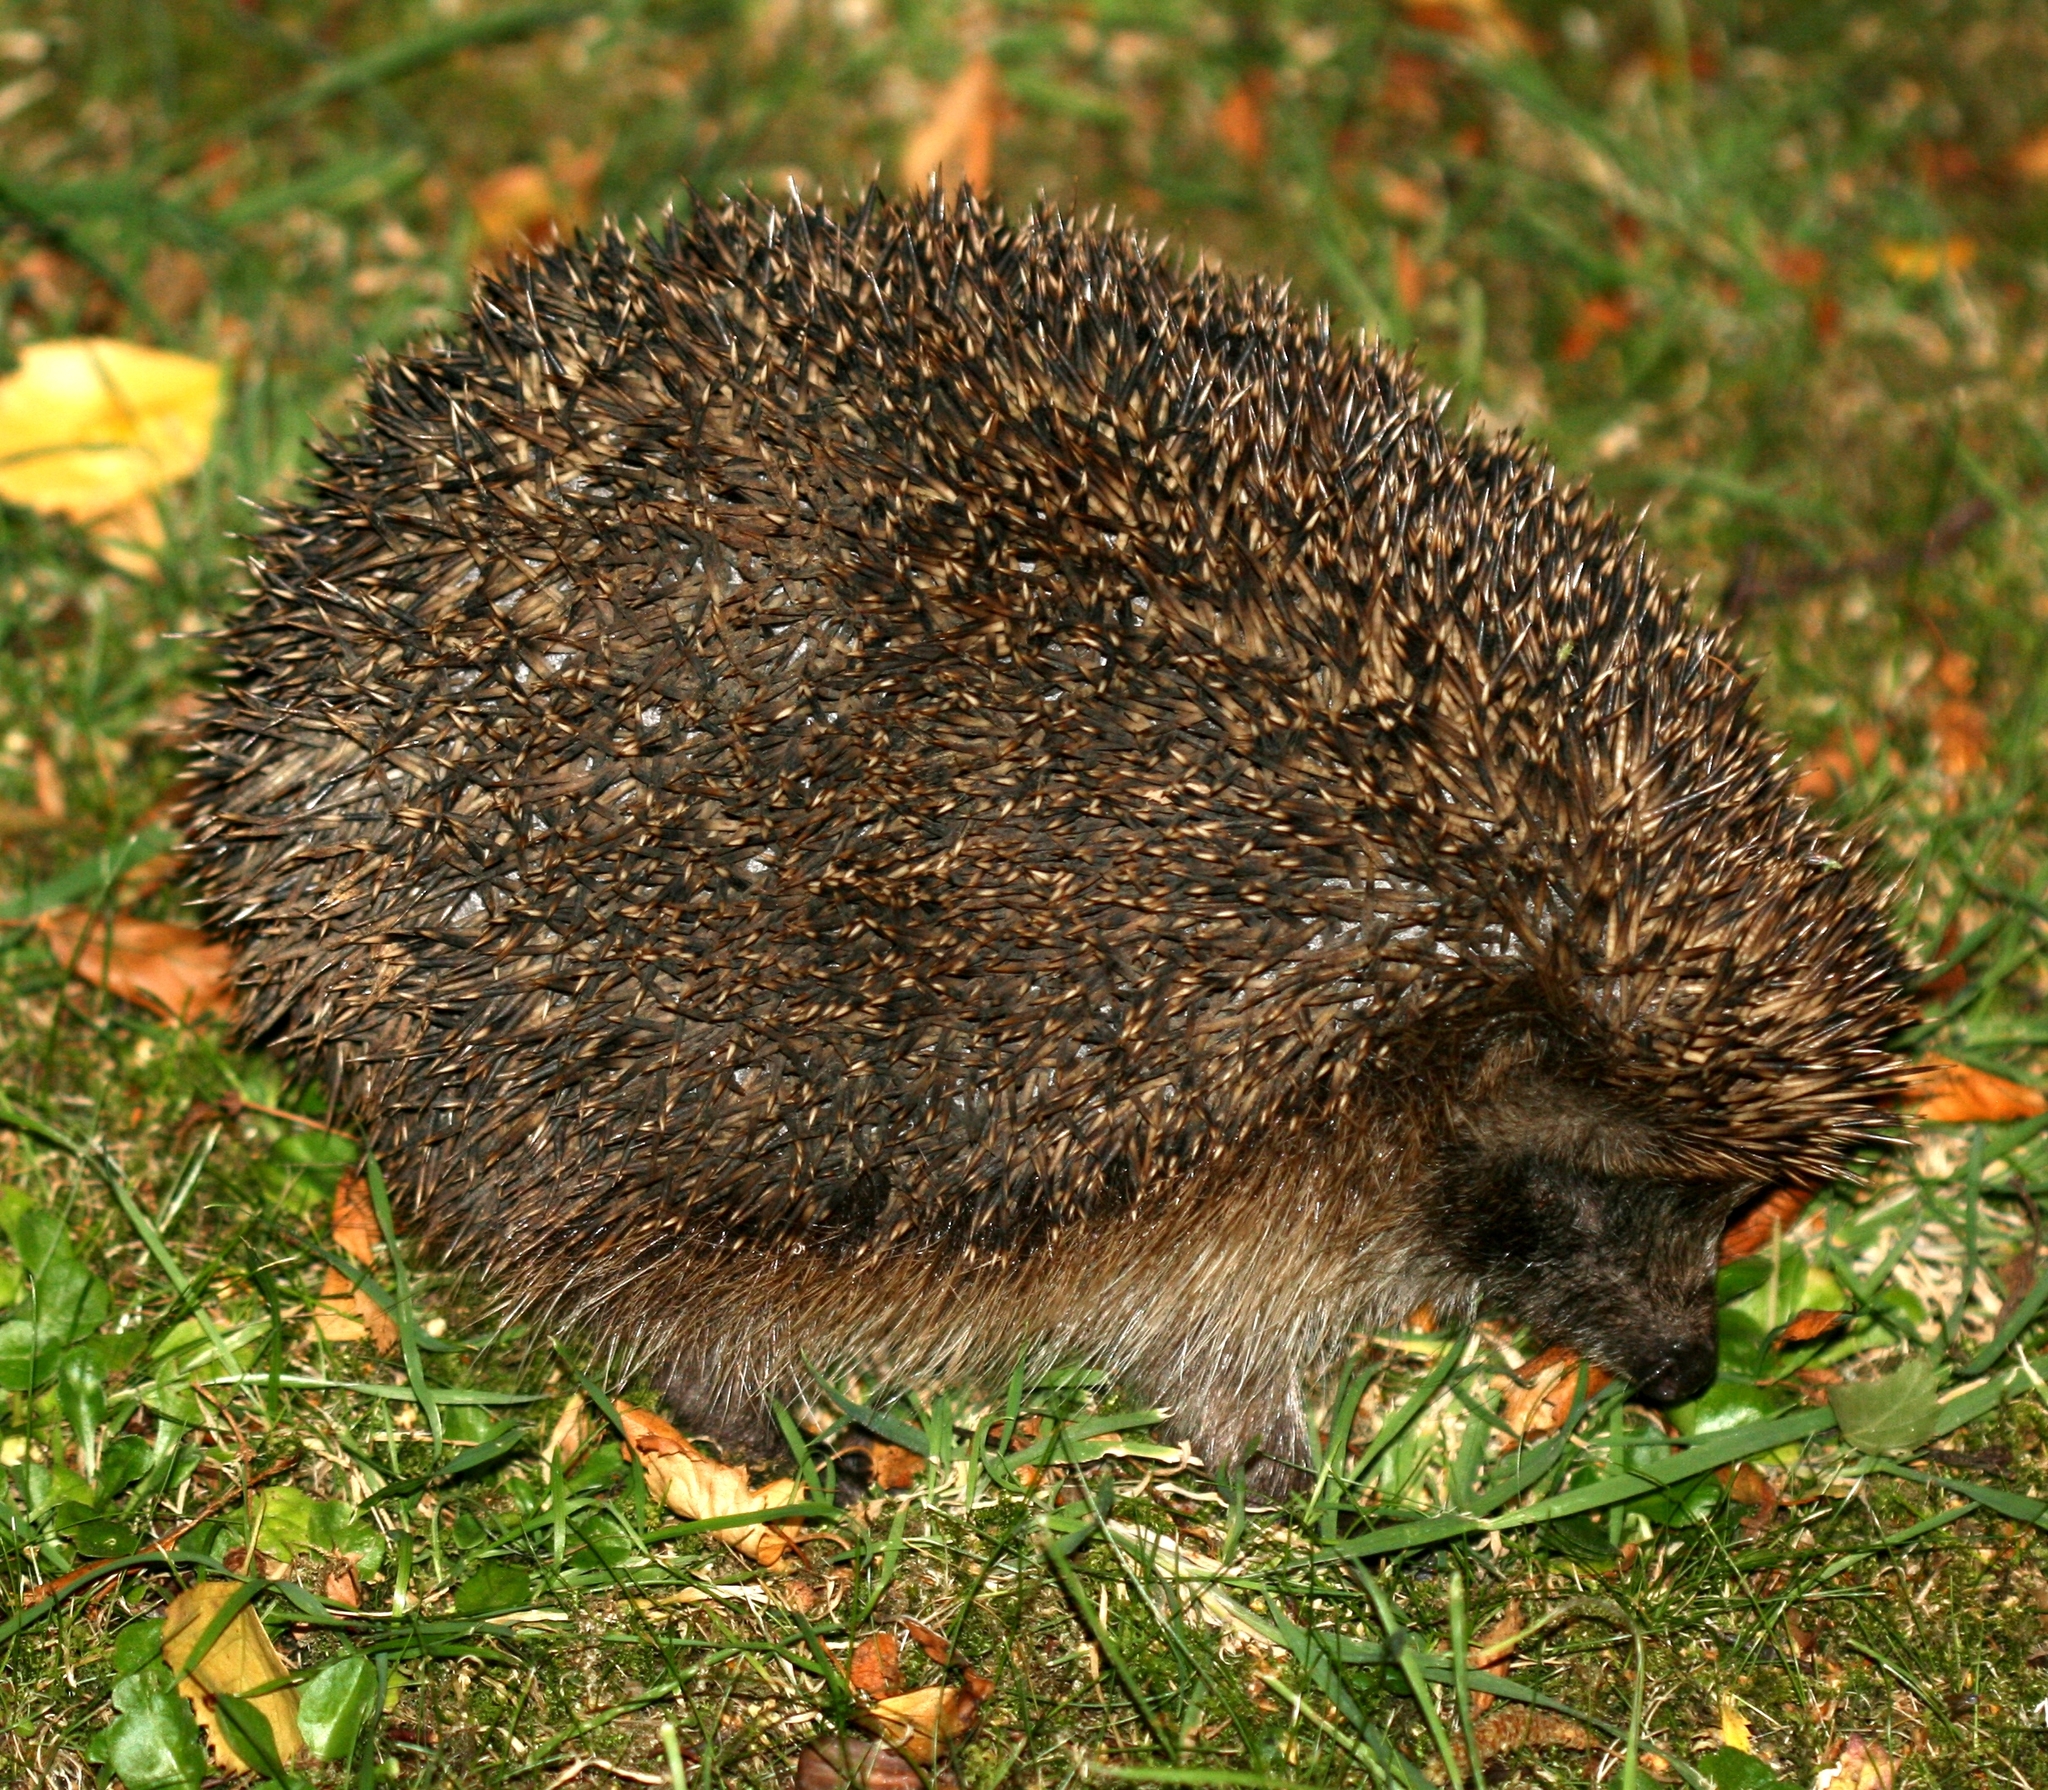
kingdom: Animalia
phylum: Chordata
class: Mammalia
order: Erinaceomorpha
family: Erinaceidae
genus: Erinaceus
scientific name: Erinaceus europaeus
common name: West european hedgehog
